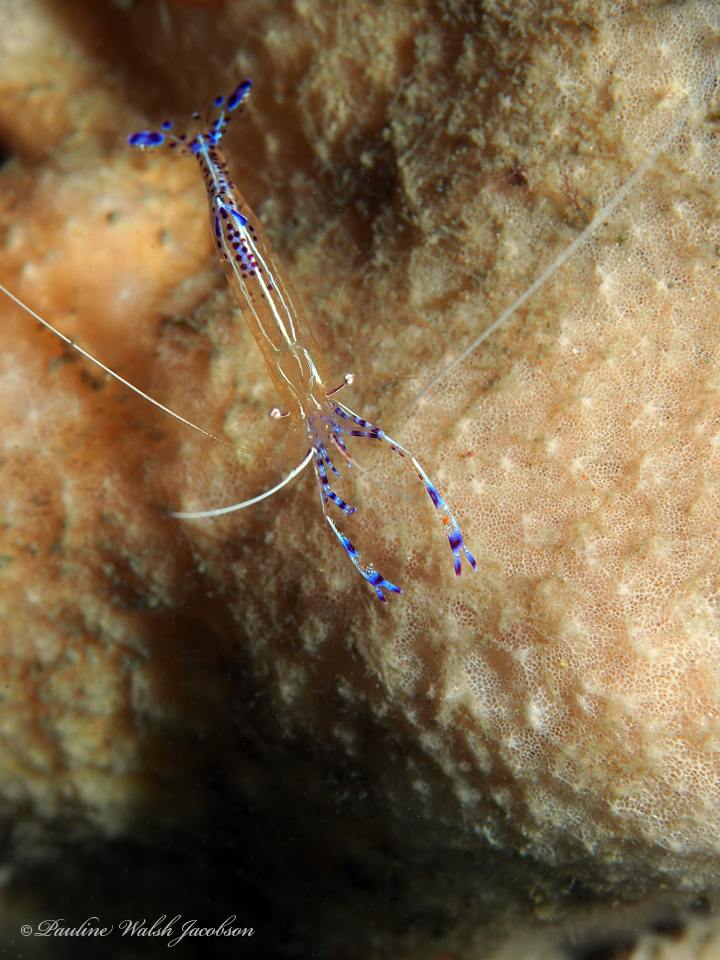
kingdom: Animalia
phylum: Arthropoda
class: Malacostraca
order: Decapoda
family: Palaemonidae
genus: Ancylomenes
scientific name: Ancylomenes pedersoni
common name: Pederson's cleaning shrimp
